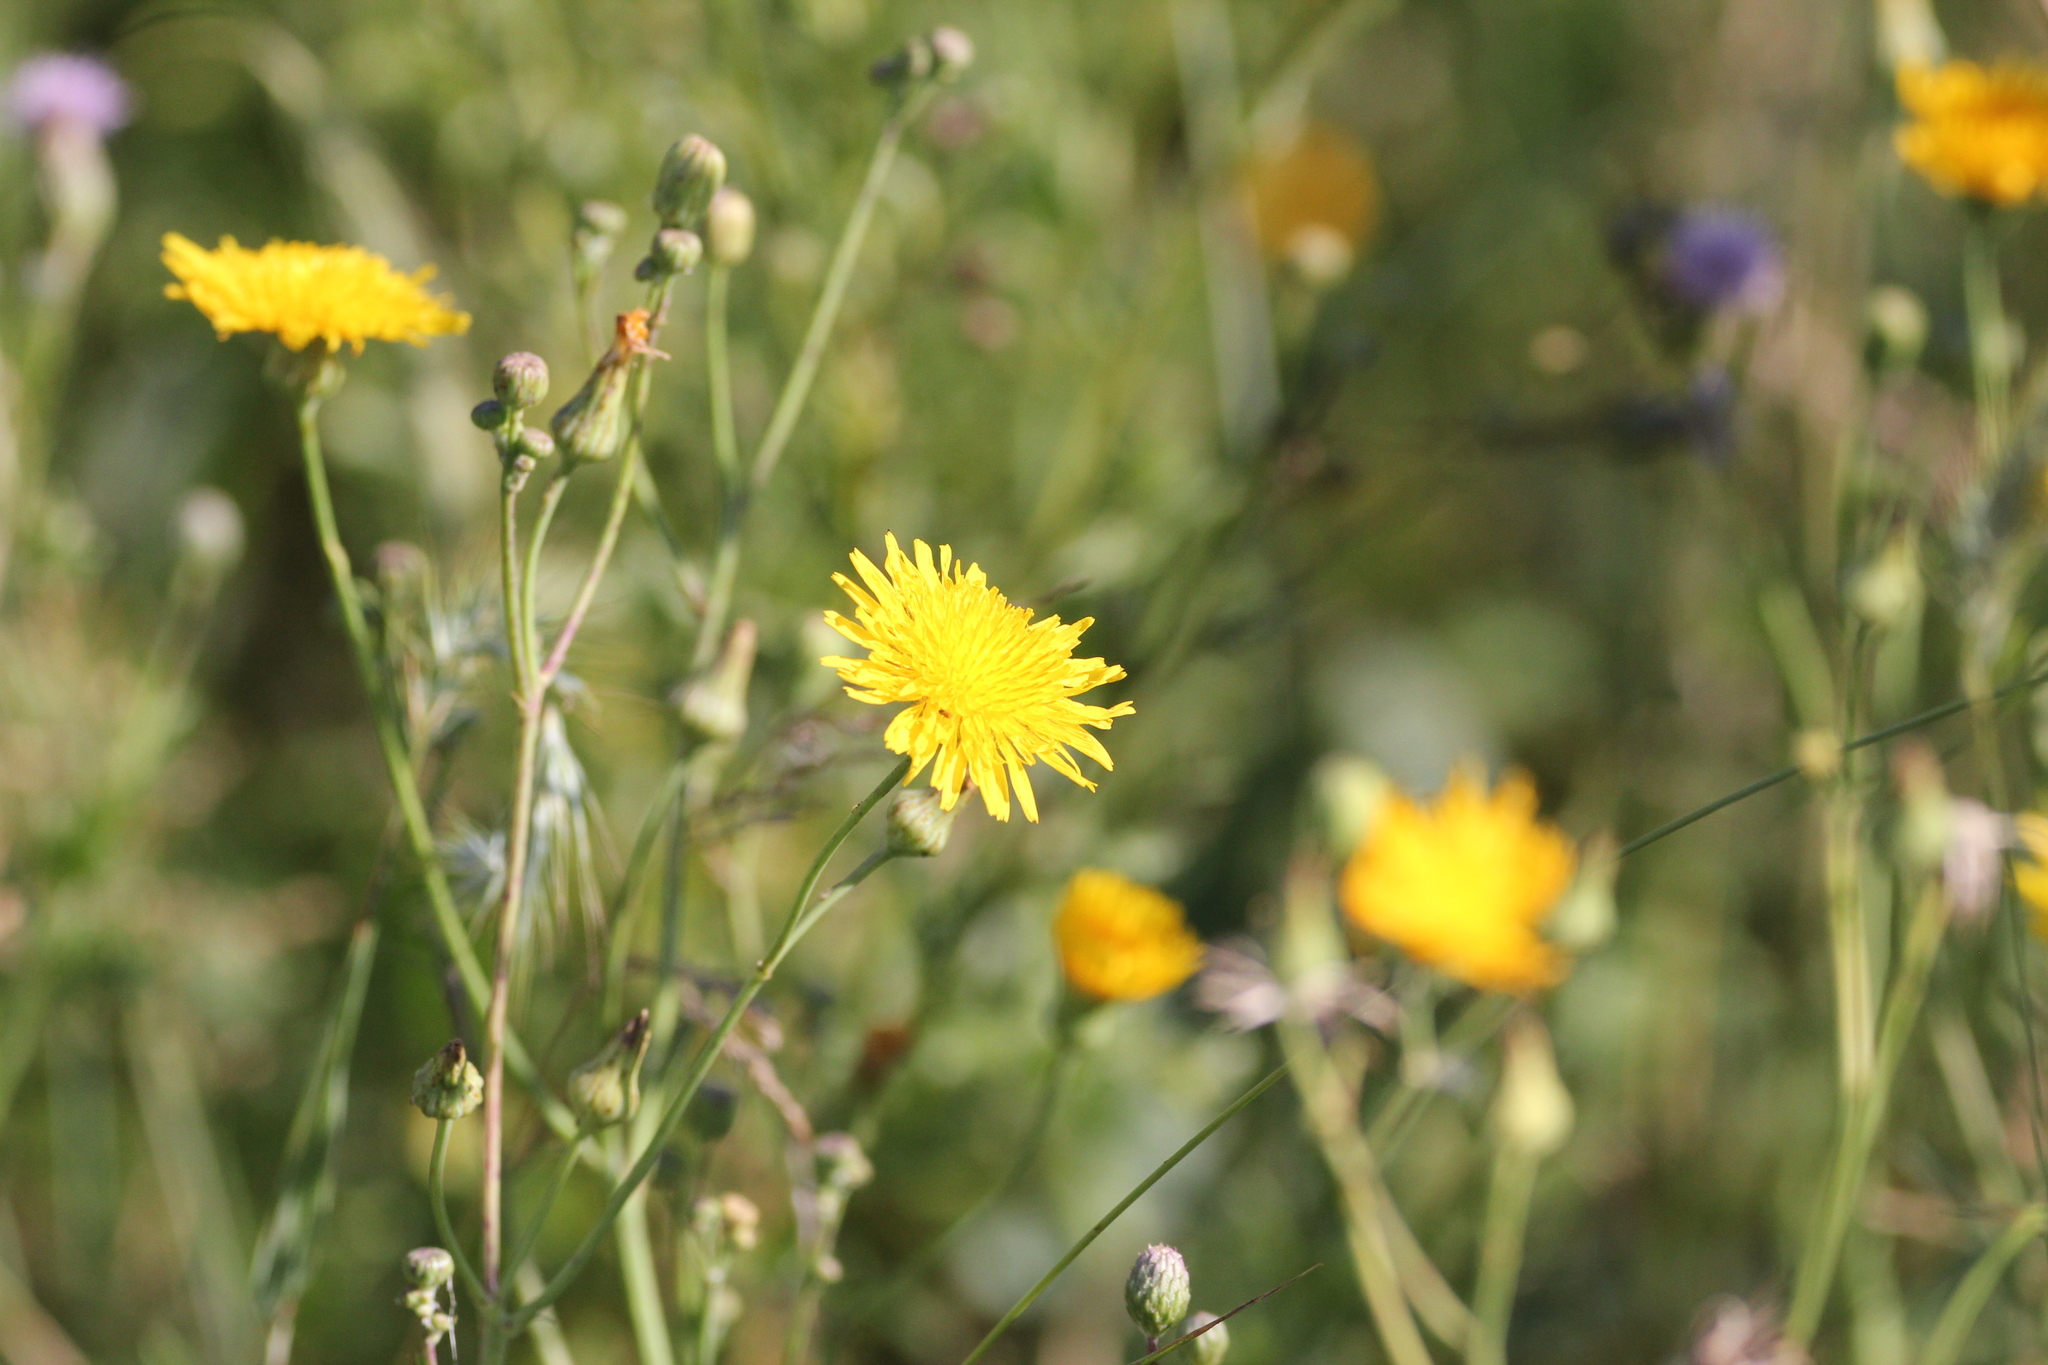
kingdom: Plantae
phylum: Tracheophyta
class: Magnoliopsida
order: Asterales
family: Asteraceae
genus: Sonchus
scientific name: Sonchus arvensis
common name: Perennial sow-thistle
